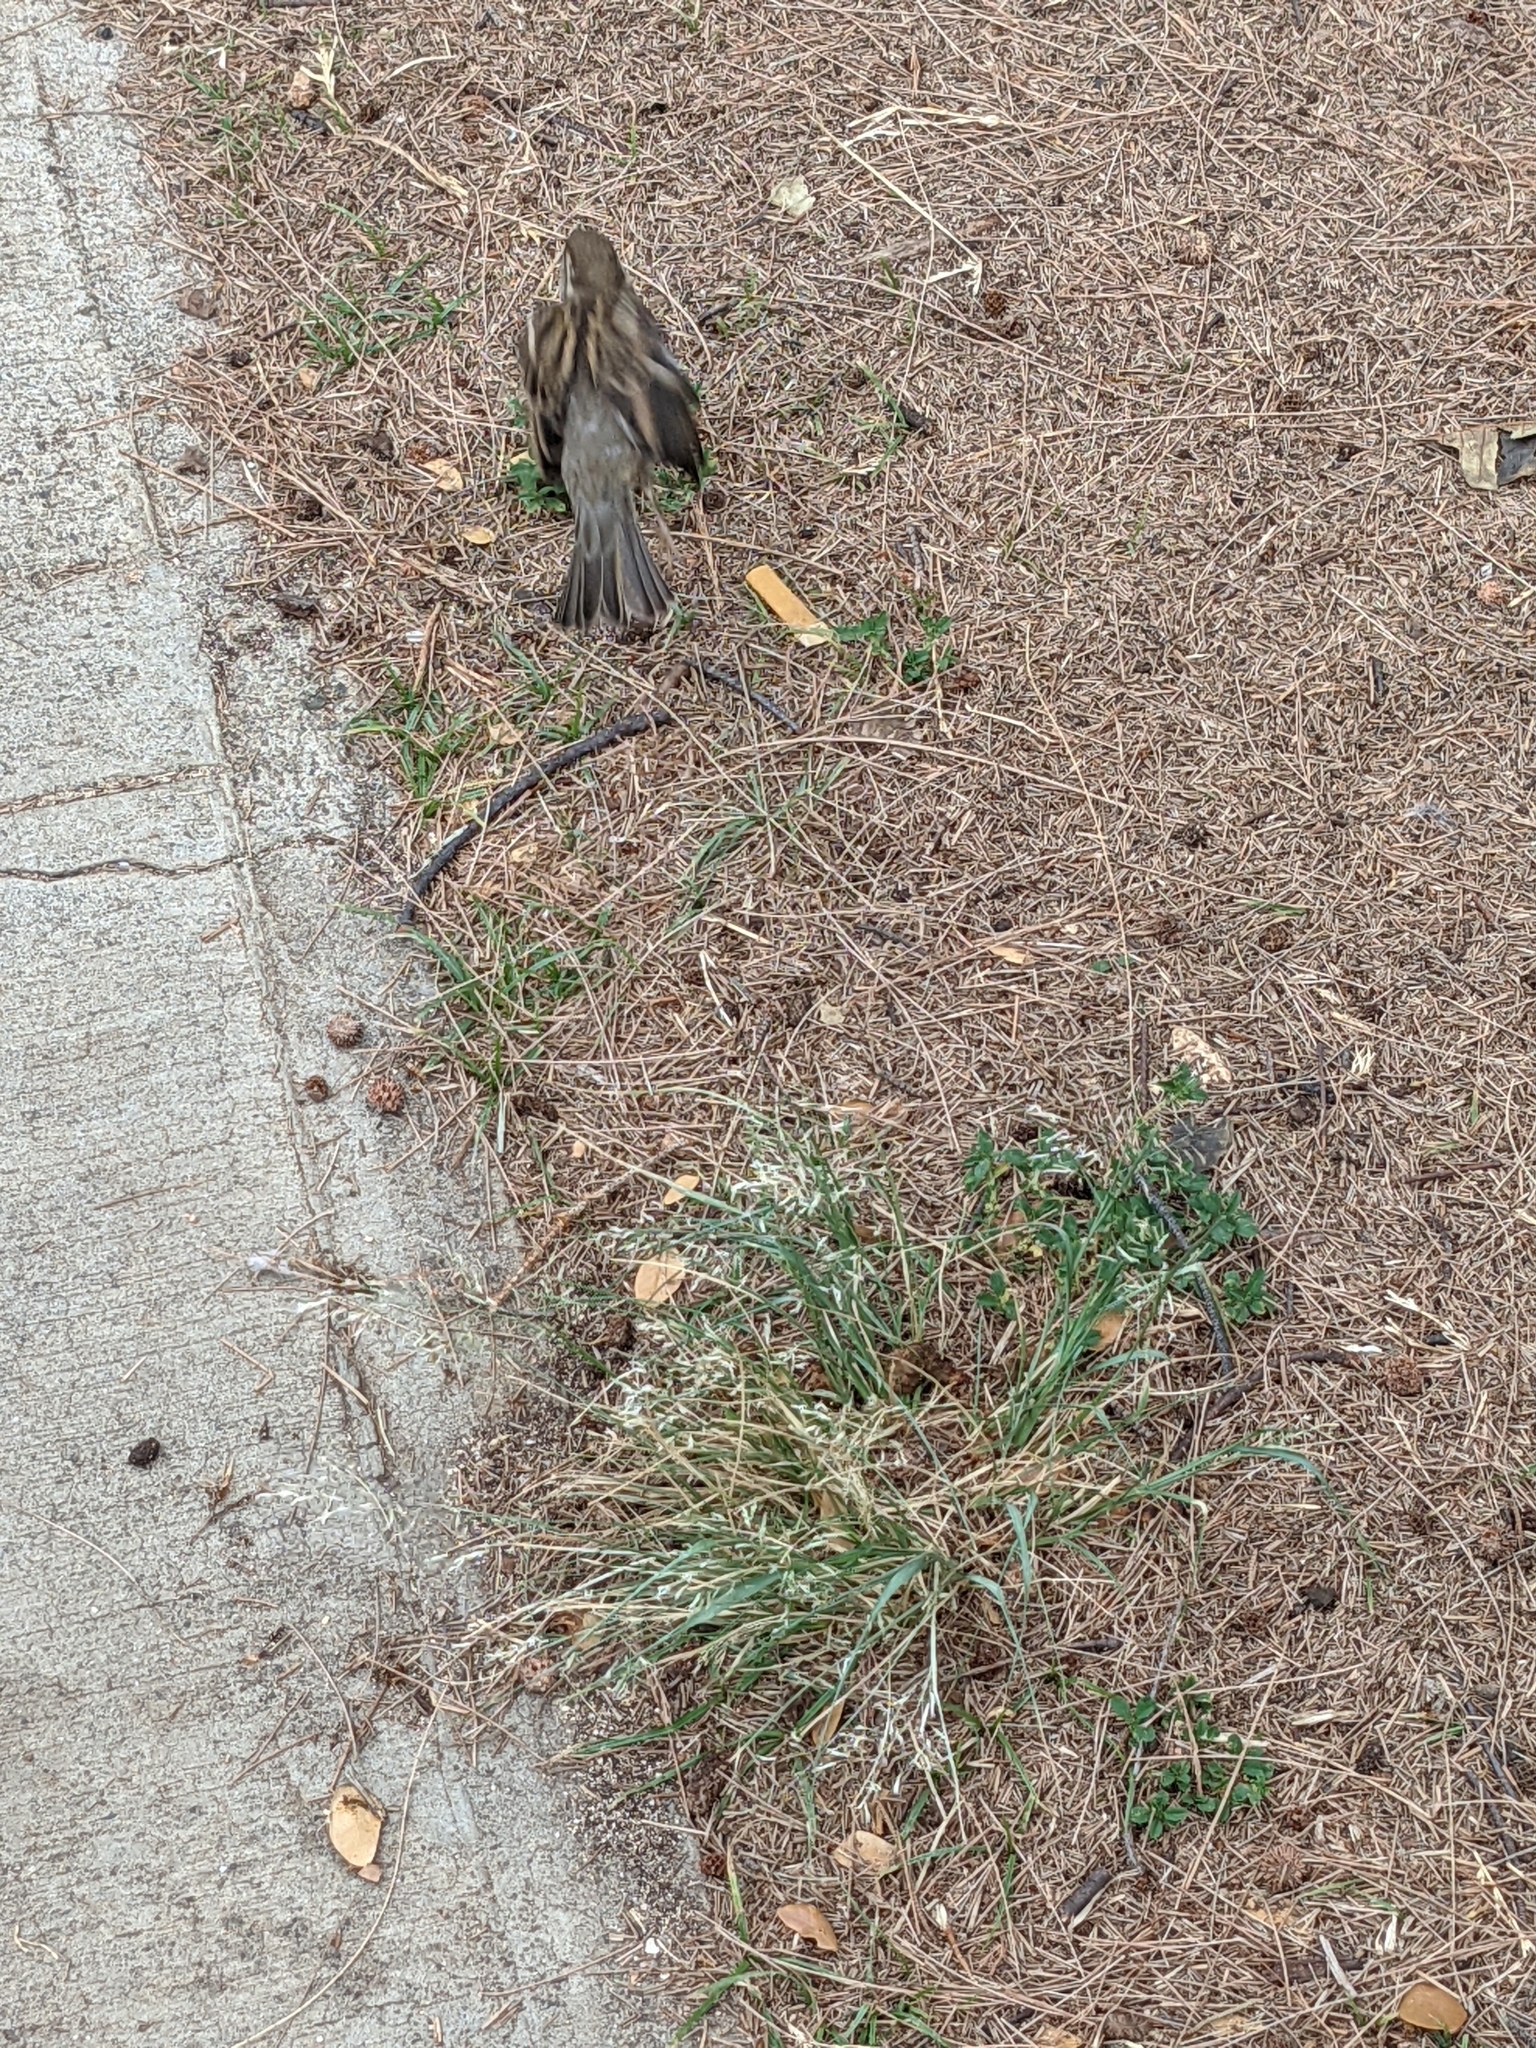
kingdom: Animalia
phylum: Chordata
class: Aves
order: Passeriformes
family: Passeridae
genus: Passer
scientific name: Passer domesticus
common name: House sparrow
